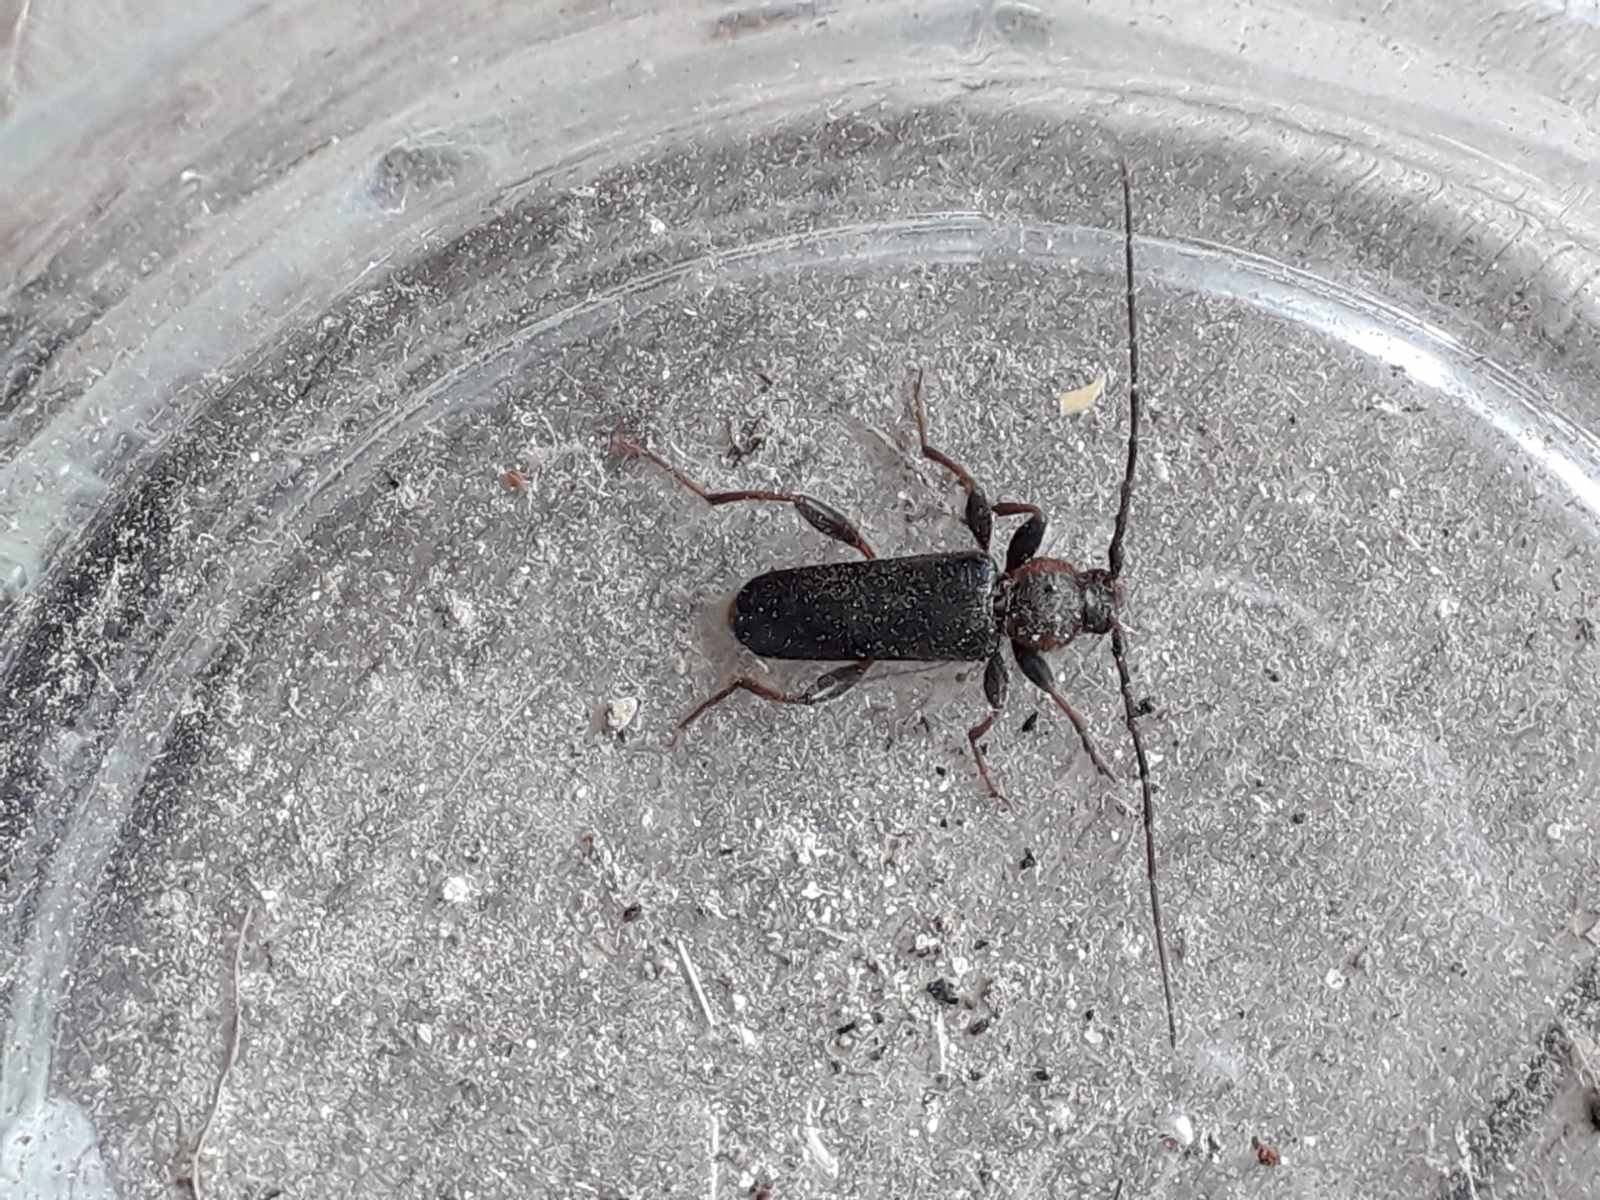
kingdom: Animalia
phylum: Arthropoda
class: Insecta
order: Coleoptera
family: Cerambycidae
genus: Phymatodes
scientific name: Phymatodes testaceus
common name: Long-horned beetle
